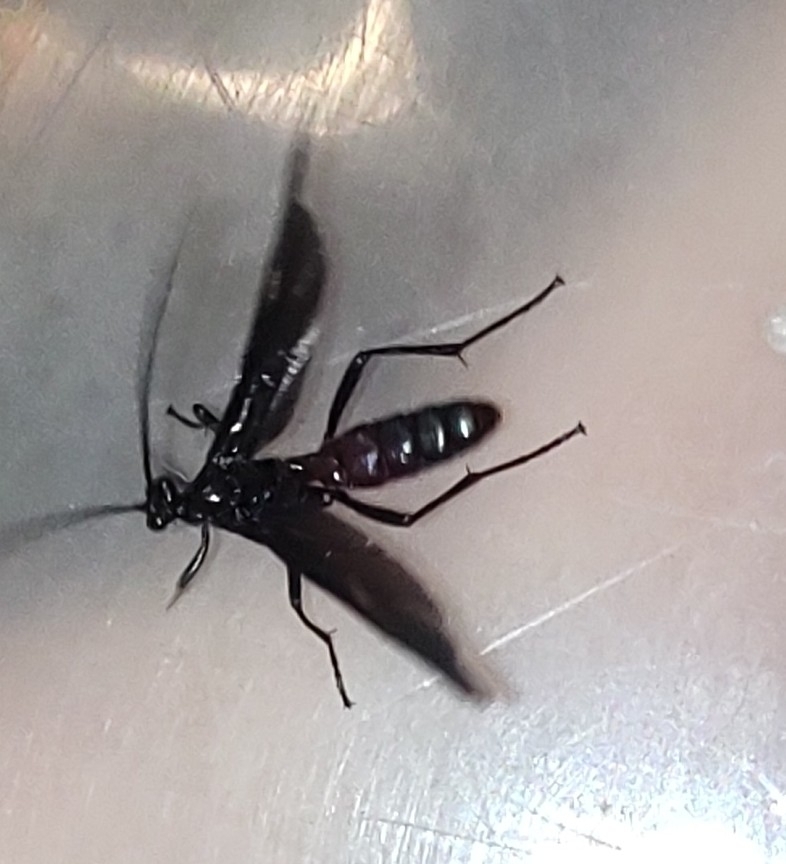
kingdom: Animalia
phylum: Arthropoda
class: Insecta
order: Hymenoptera
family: Ichneumonidae
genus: Pedinopelte
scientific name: Pedinopelte gravenstii
